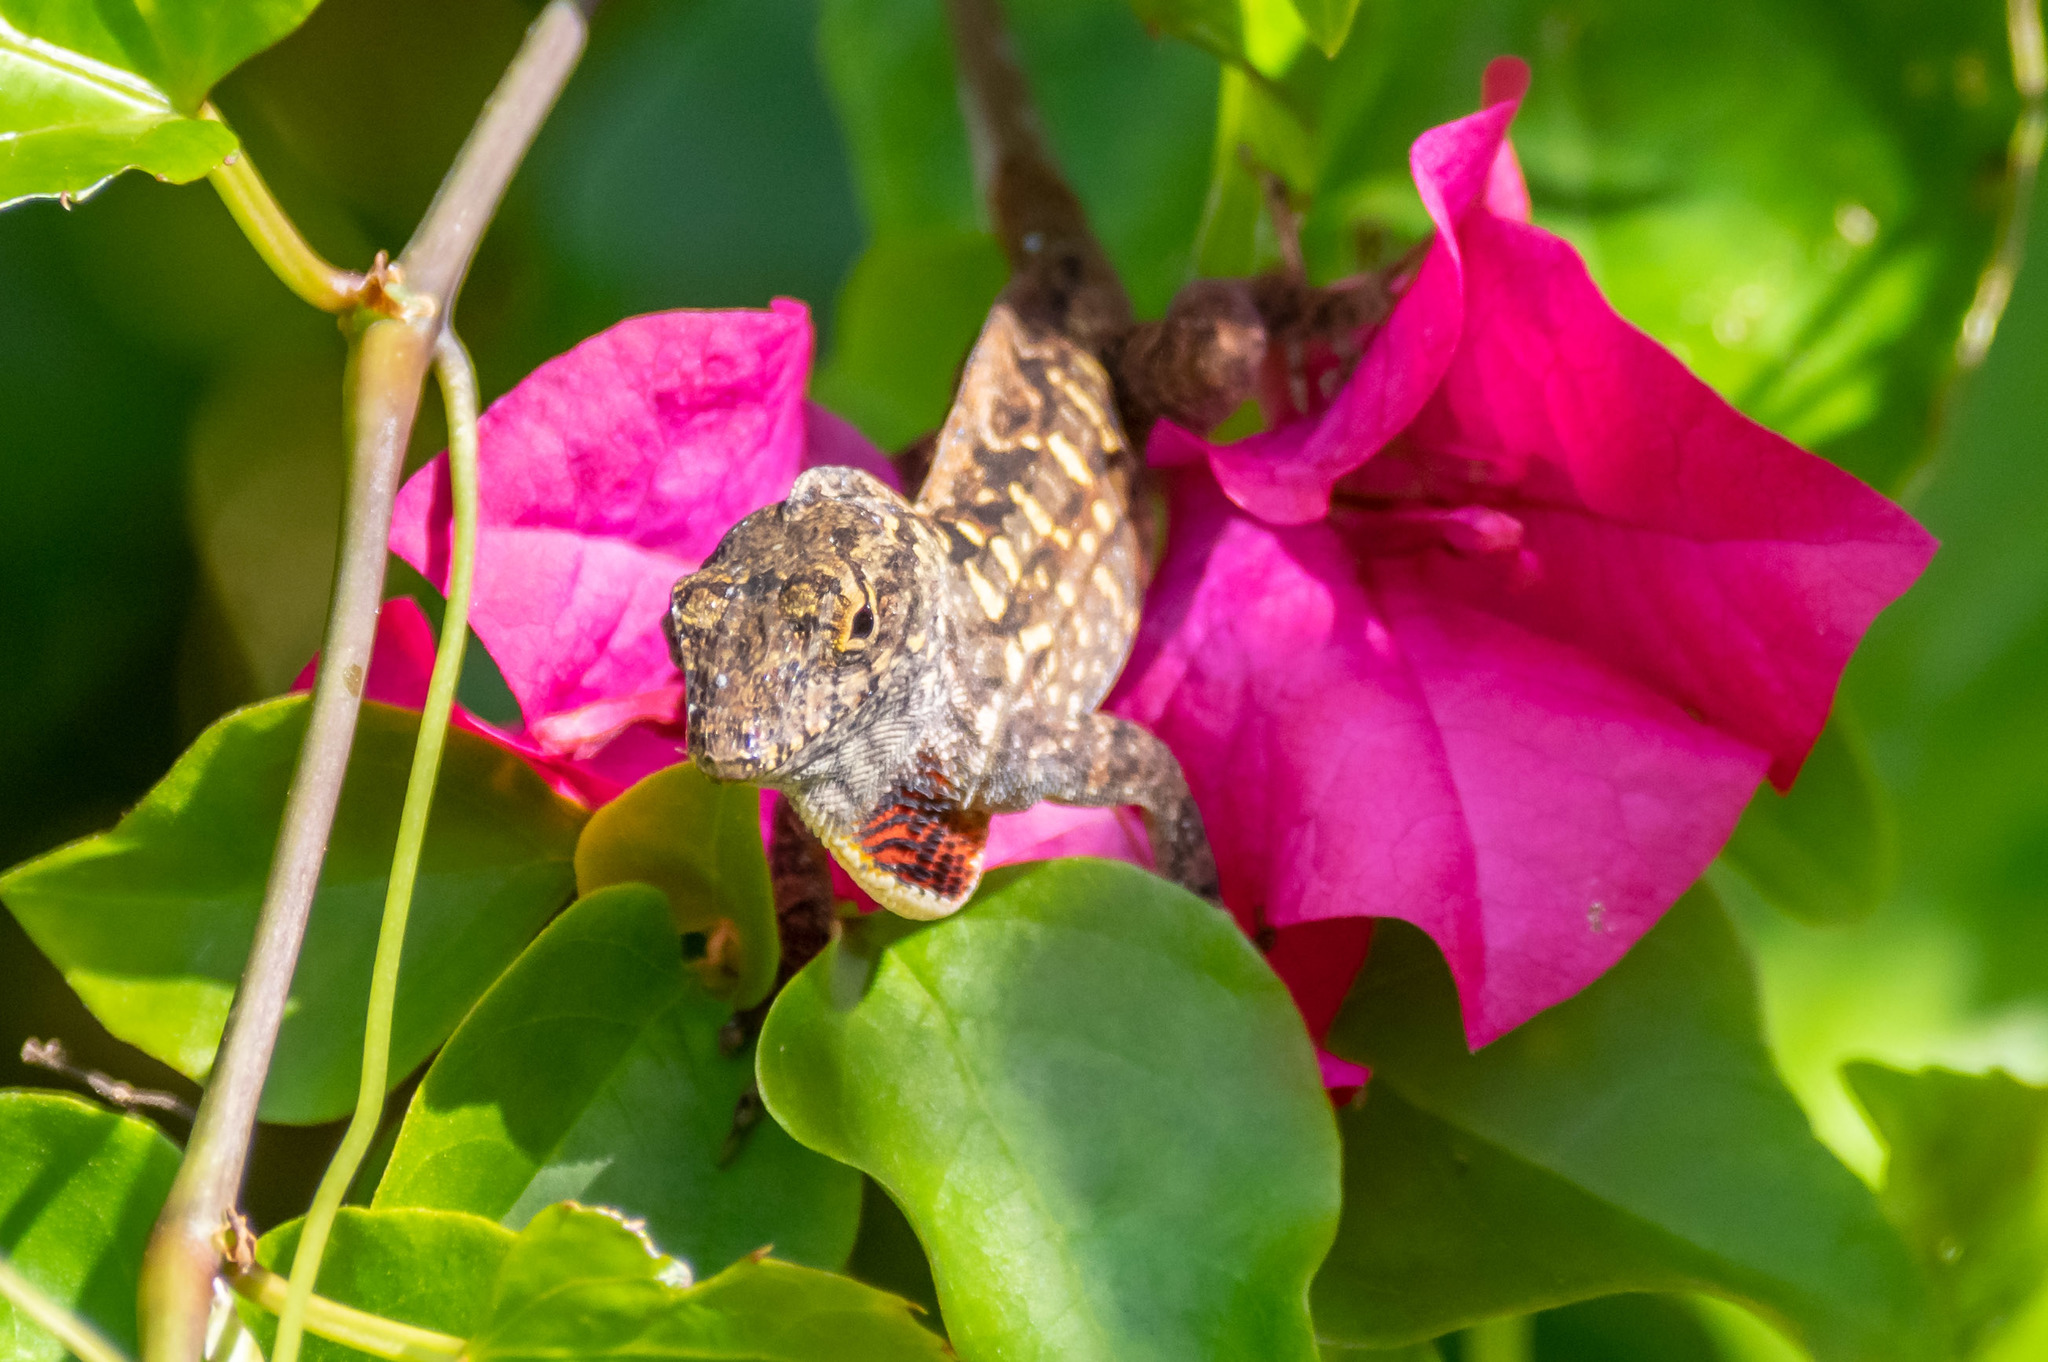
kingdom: Animalia
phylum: Chordata
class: Squamata
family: Dactyloidae
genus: Anolis
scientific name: Anolis sagrei
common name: Brown anole
